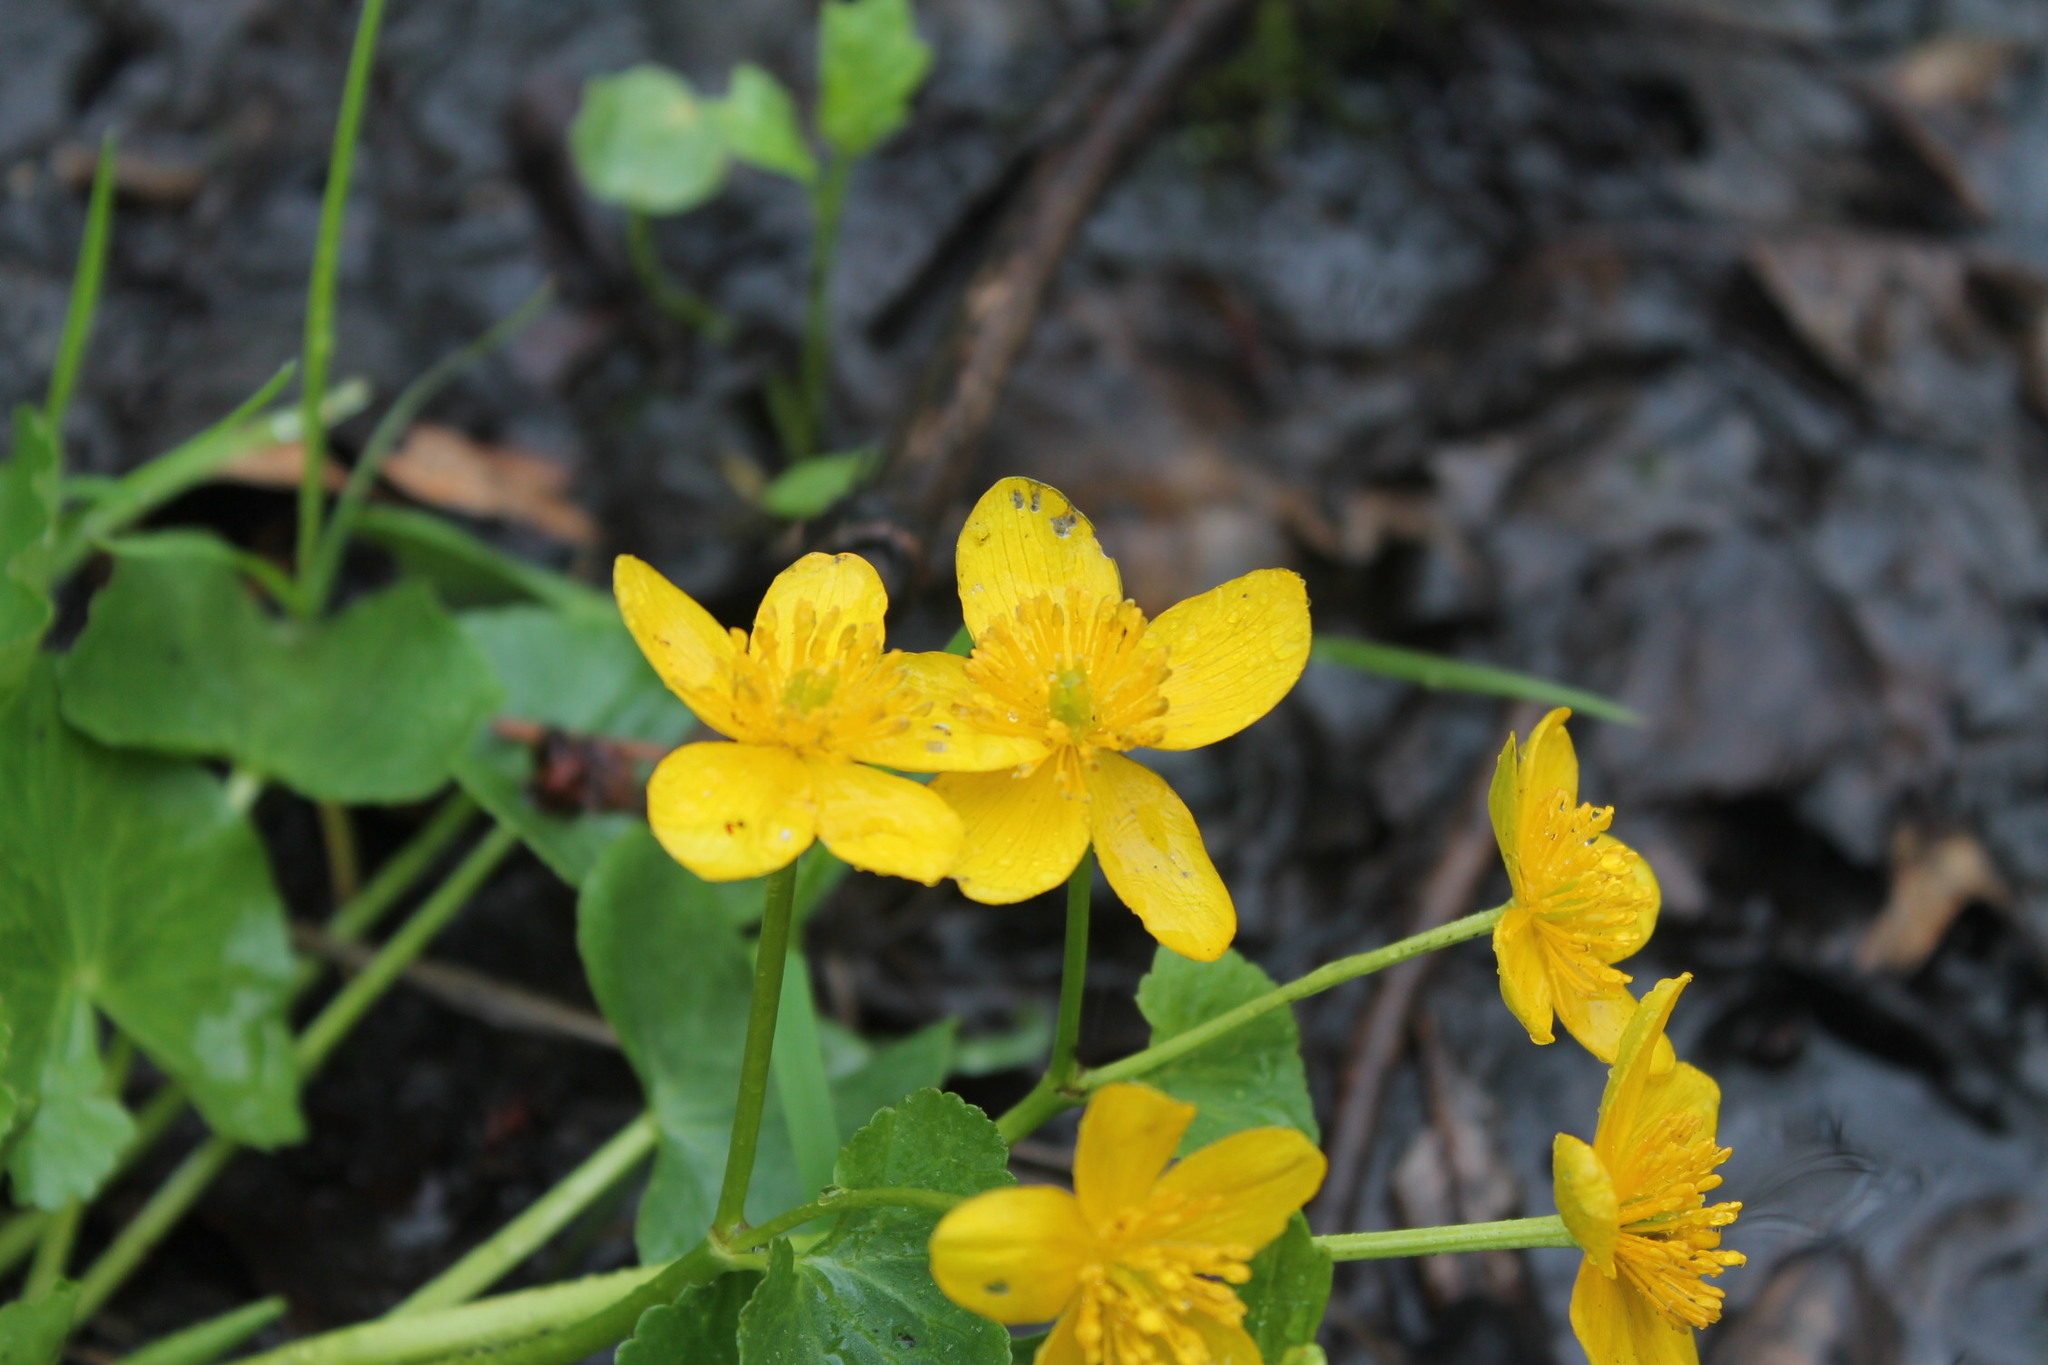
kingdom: Plantae
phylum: Tracheophyta
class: Magnoliopsida
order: Ranunculales
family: Ranunculaceae
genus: Caltha
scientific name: Caltha palustris
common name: Marsh marigold
